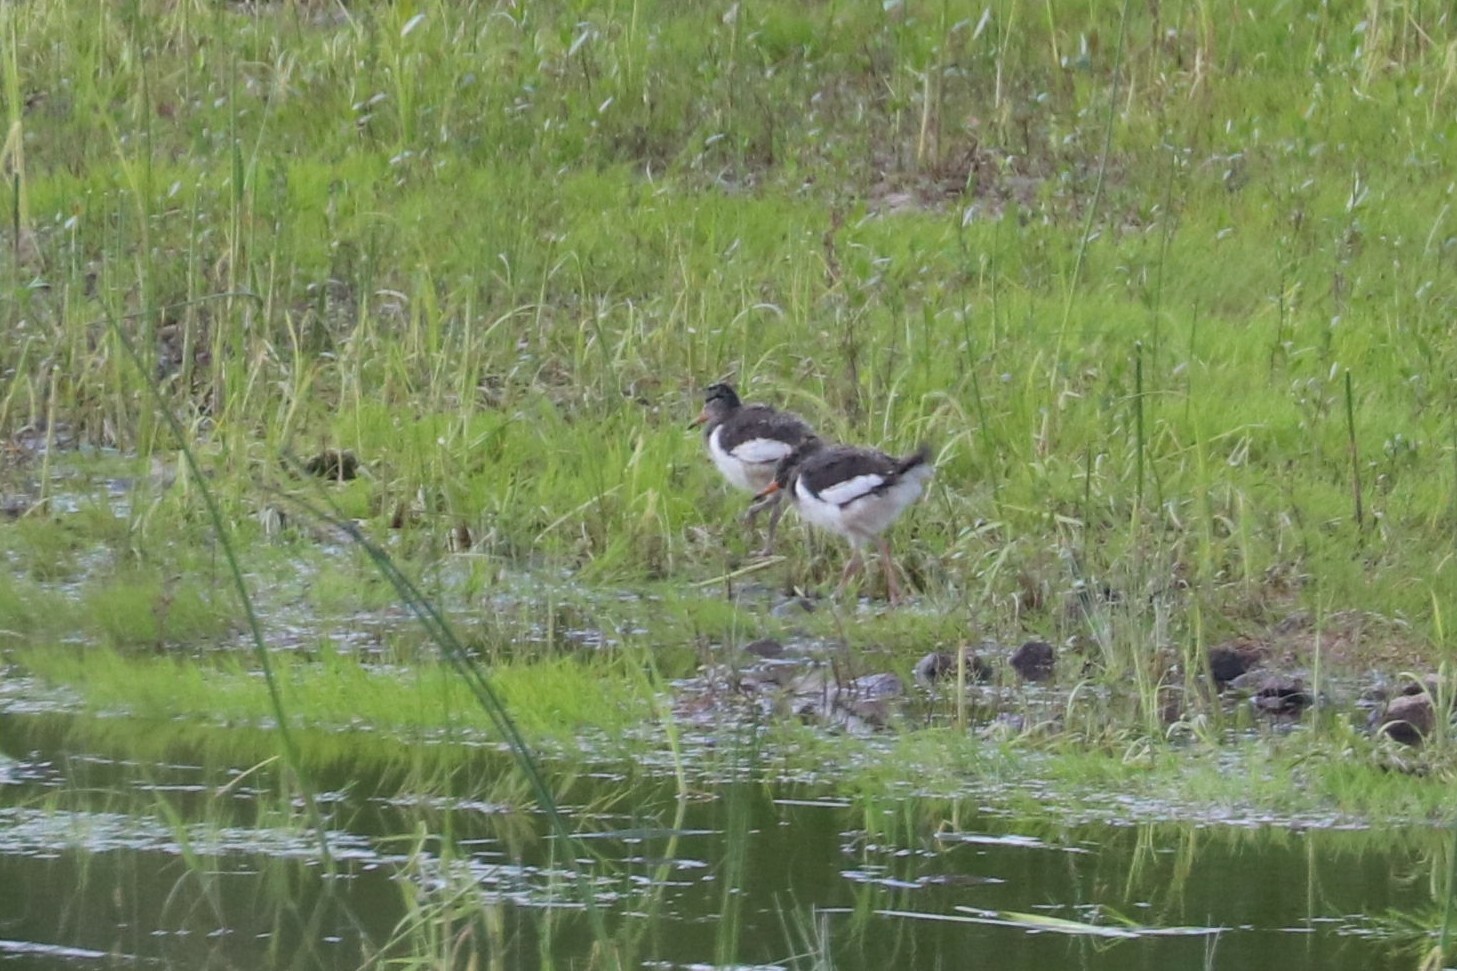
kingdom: Animalia
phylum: Chordata
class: Aves
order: Charadriiformes
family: Haematopodidae
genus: Haematopus
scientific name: Haematopus ostralegus
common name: Eurasian oystercatcher
